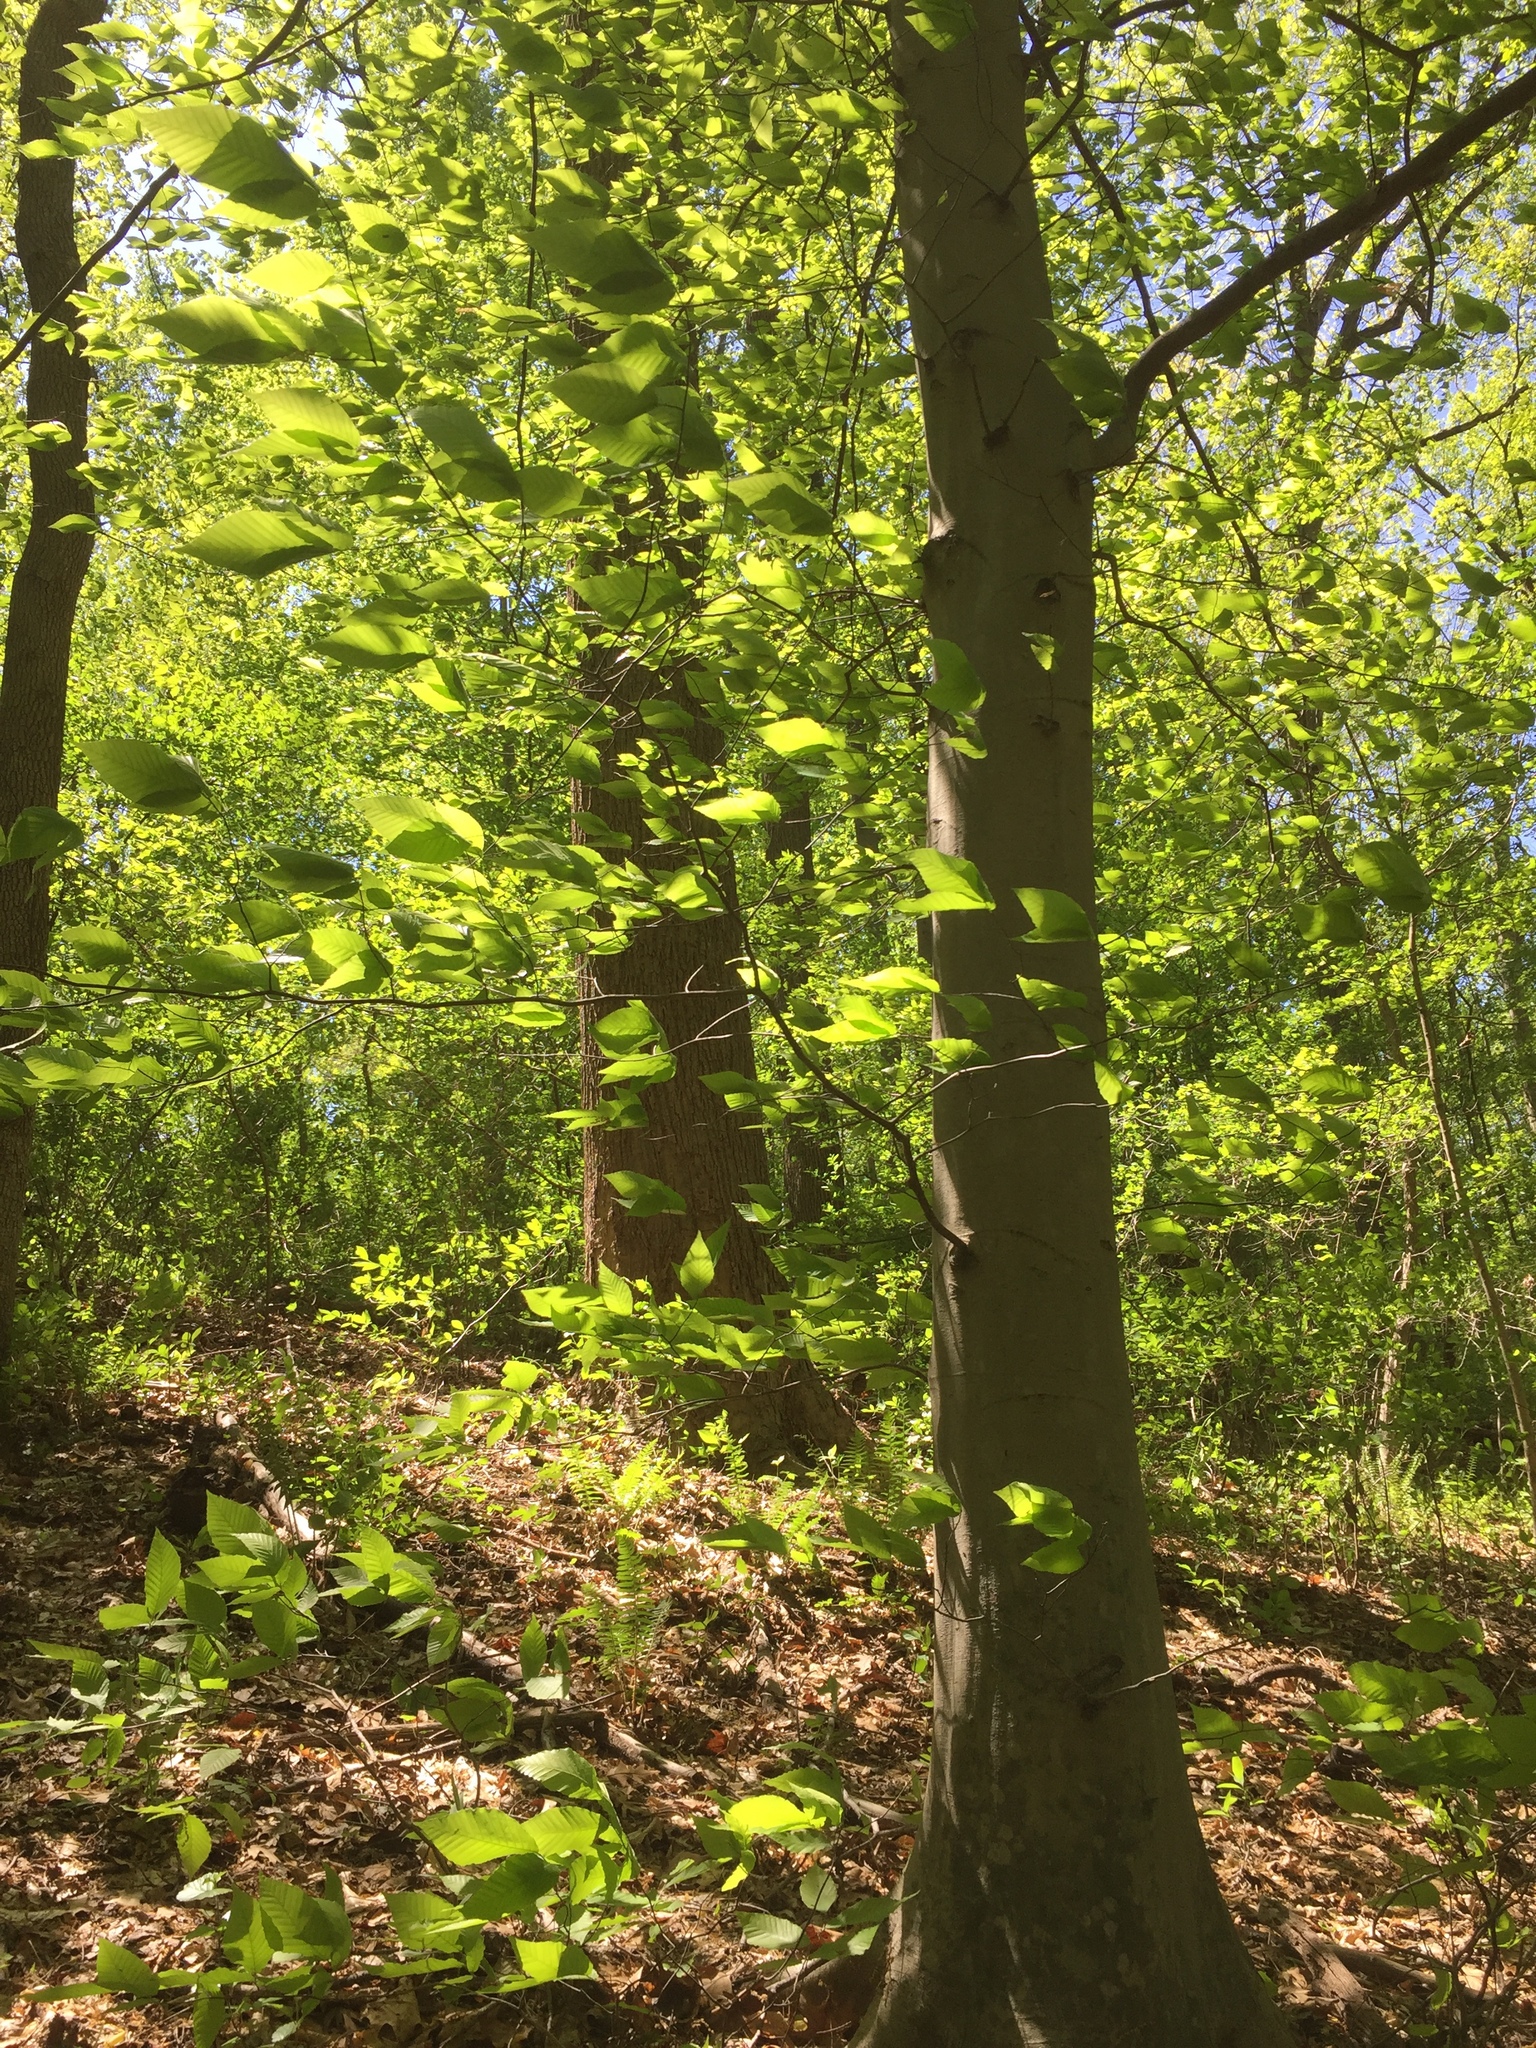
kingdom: Plantae
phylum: Tracheophyta
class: Magnoliopsida
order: Fagales
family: Fagaceae
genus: Fagus
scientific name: Fagus grandifolia
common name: American beech
